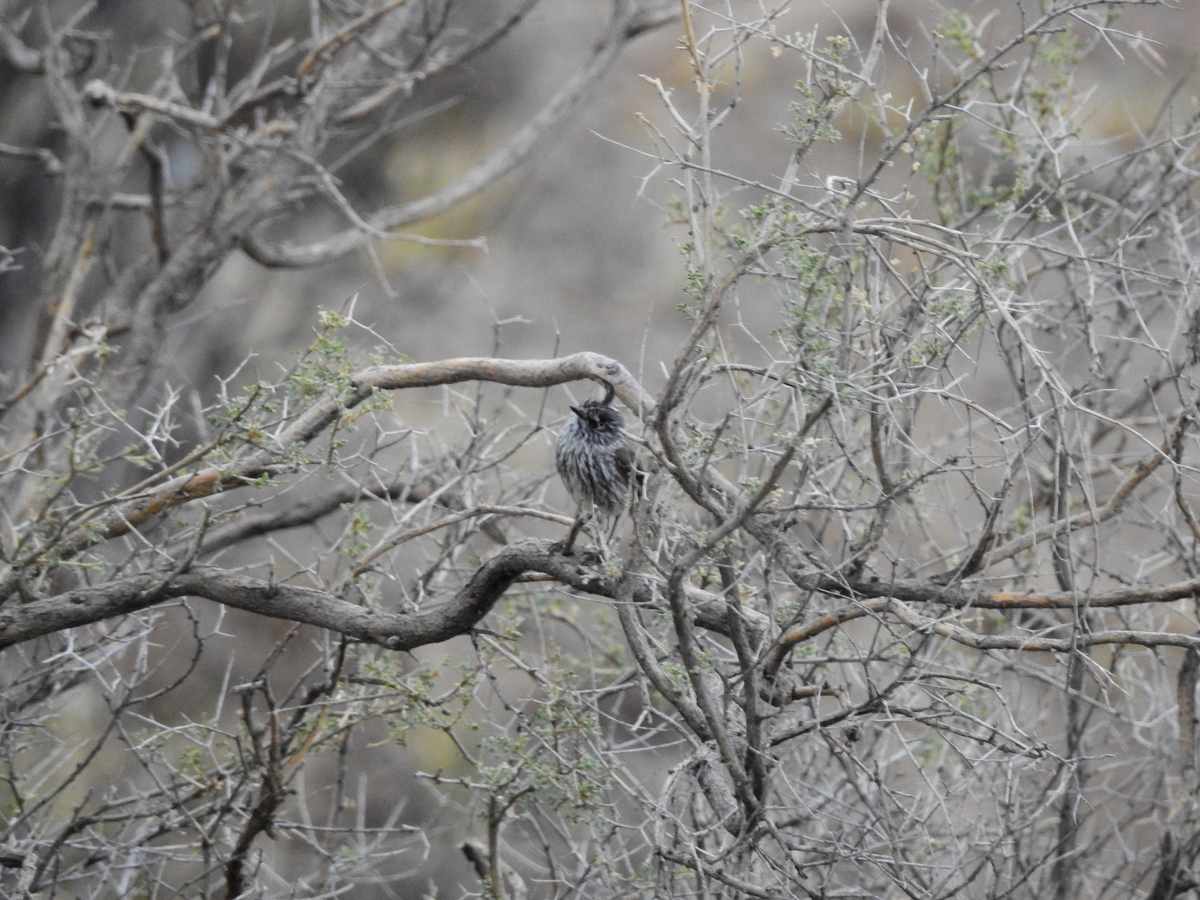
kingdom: Animalia
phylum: Chordata
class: Aves
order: Passeriformes
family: Tyrannidae
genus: Anairetes
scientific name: Anairetes parulus
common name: Tufted tit-tyrant
